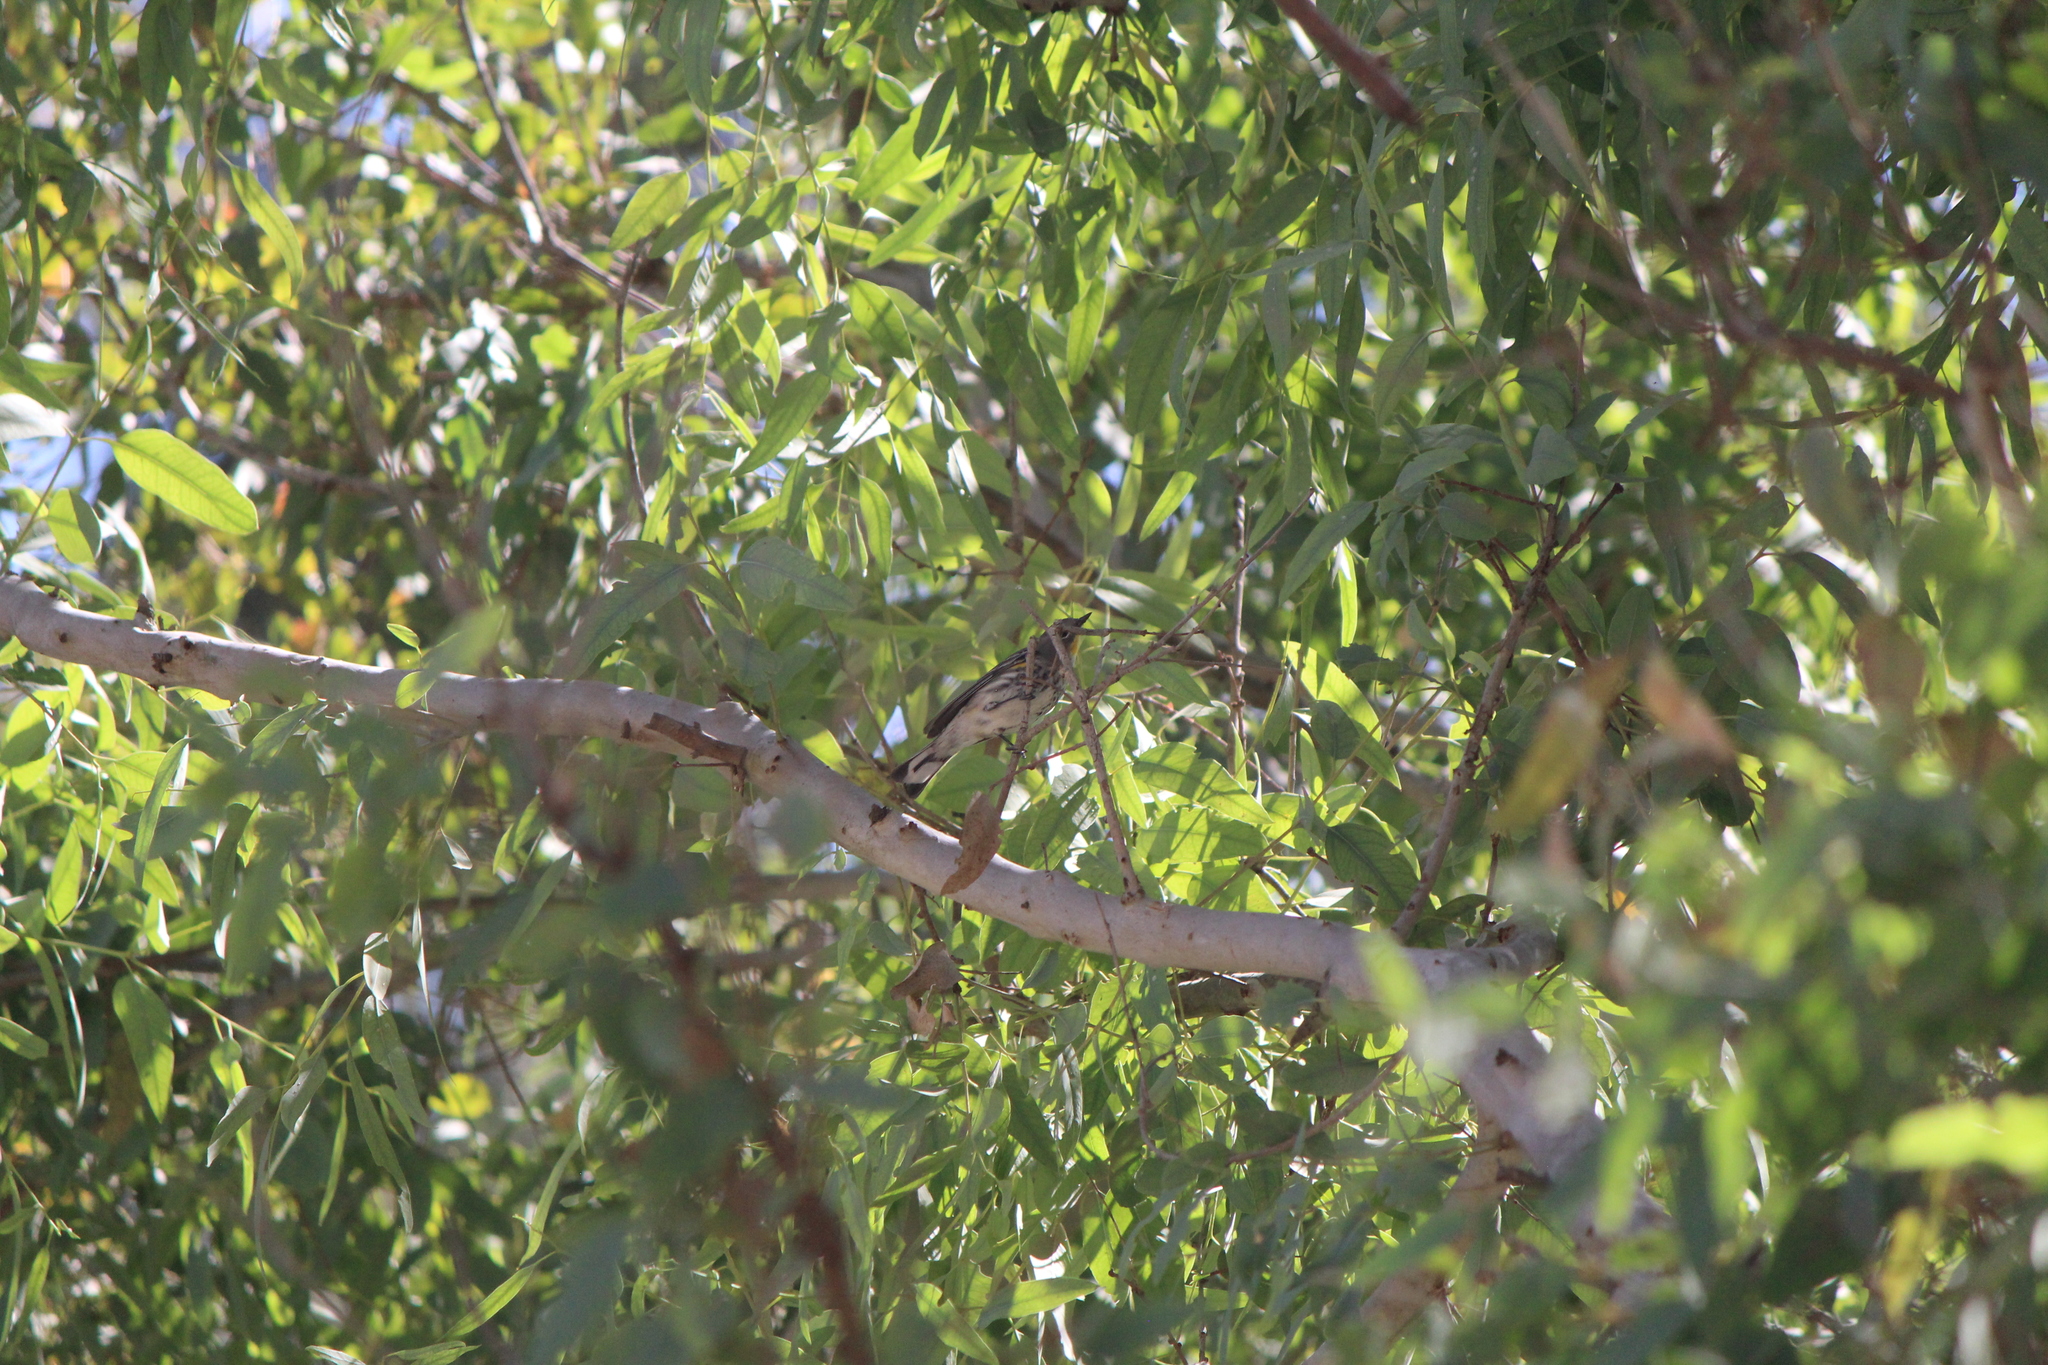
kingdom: Animalia
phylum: Chordata
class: Aves
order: Passeriformes
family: Parulidae
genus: Setophaga
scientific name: Setophaga auduboni
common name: Audubon's warbler
